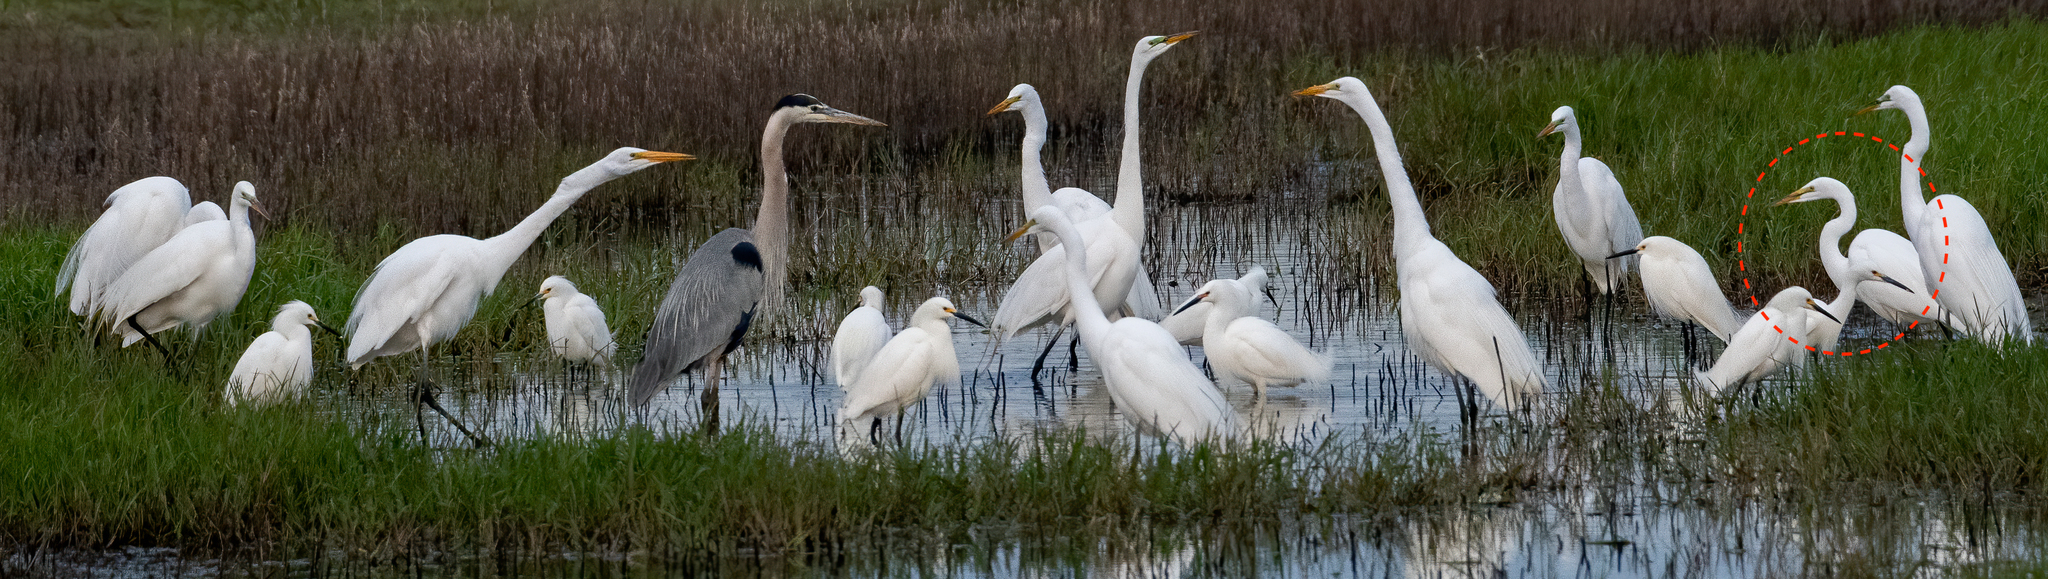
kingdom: Animalia
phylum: Chordata
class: Aves
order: Pelecaniformes
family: Ardeidae
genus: Ardea
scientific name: Ardea alba
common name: Great egret
